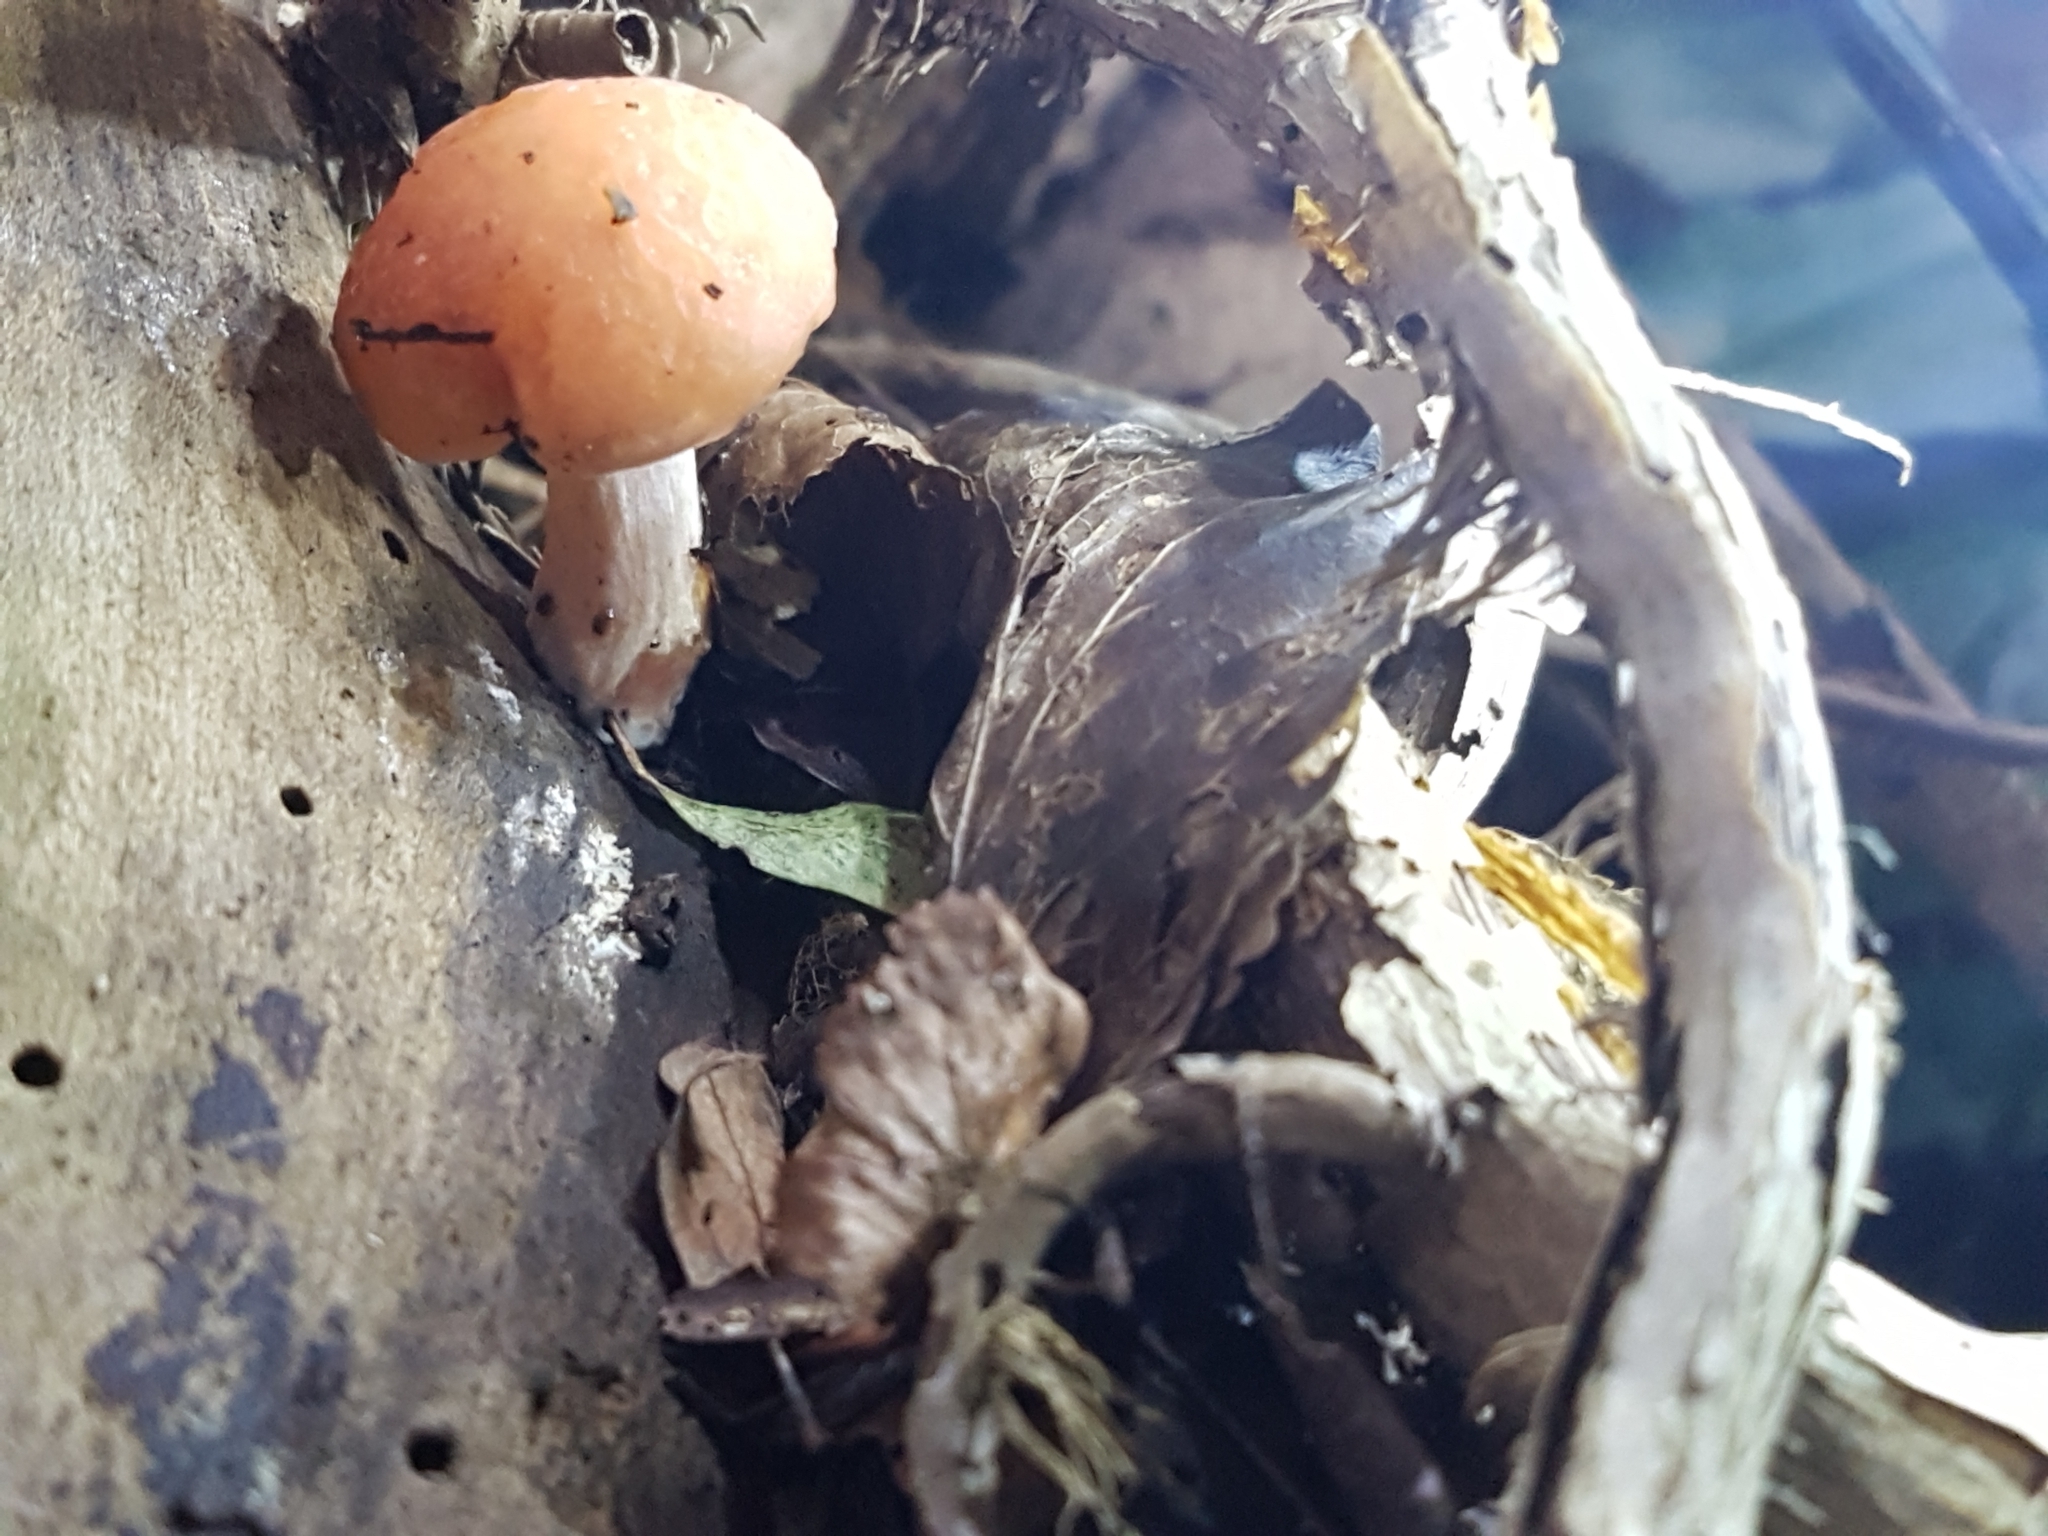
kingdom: Fungi
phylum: Basidiomycota
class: Agaricomycetes
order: Agaricales
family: Physalacriaceae
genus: Rhodotus
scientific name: Rhodotus palmatus
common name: Wrinkled peach
